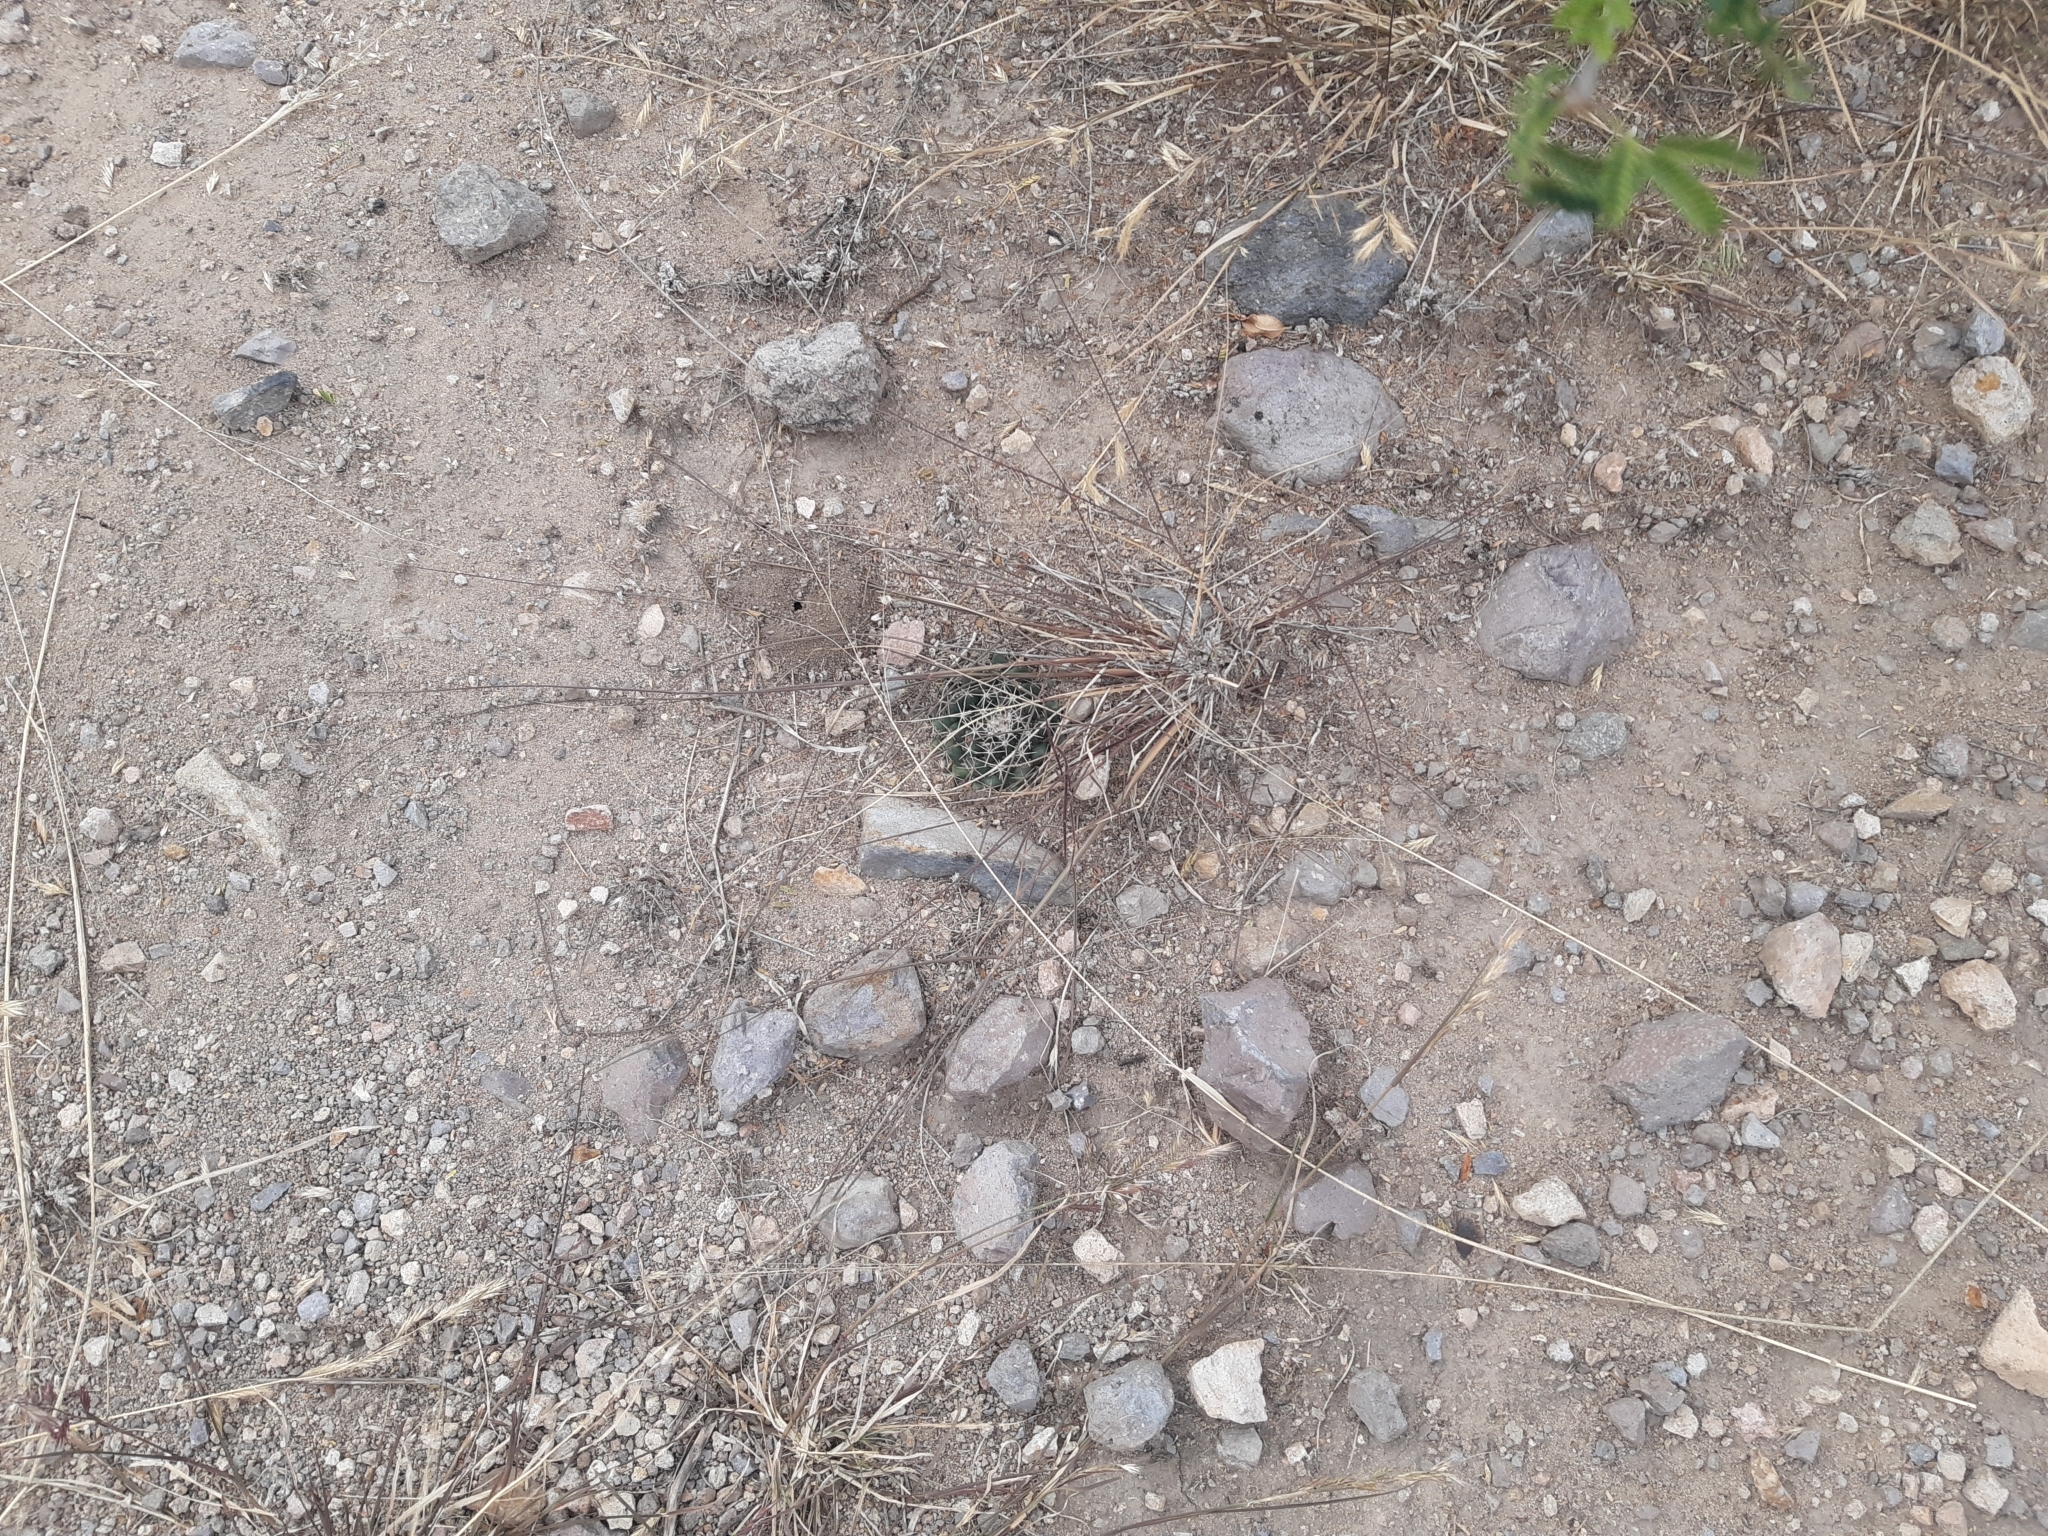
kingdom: Plantae
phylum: Tracheophyta
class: Magnoliopsida
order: Caryophyllales
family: Cactaceae
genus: Mammillaria
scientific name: Mammillaria uncinata
